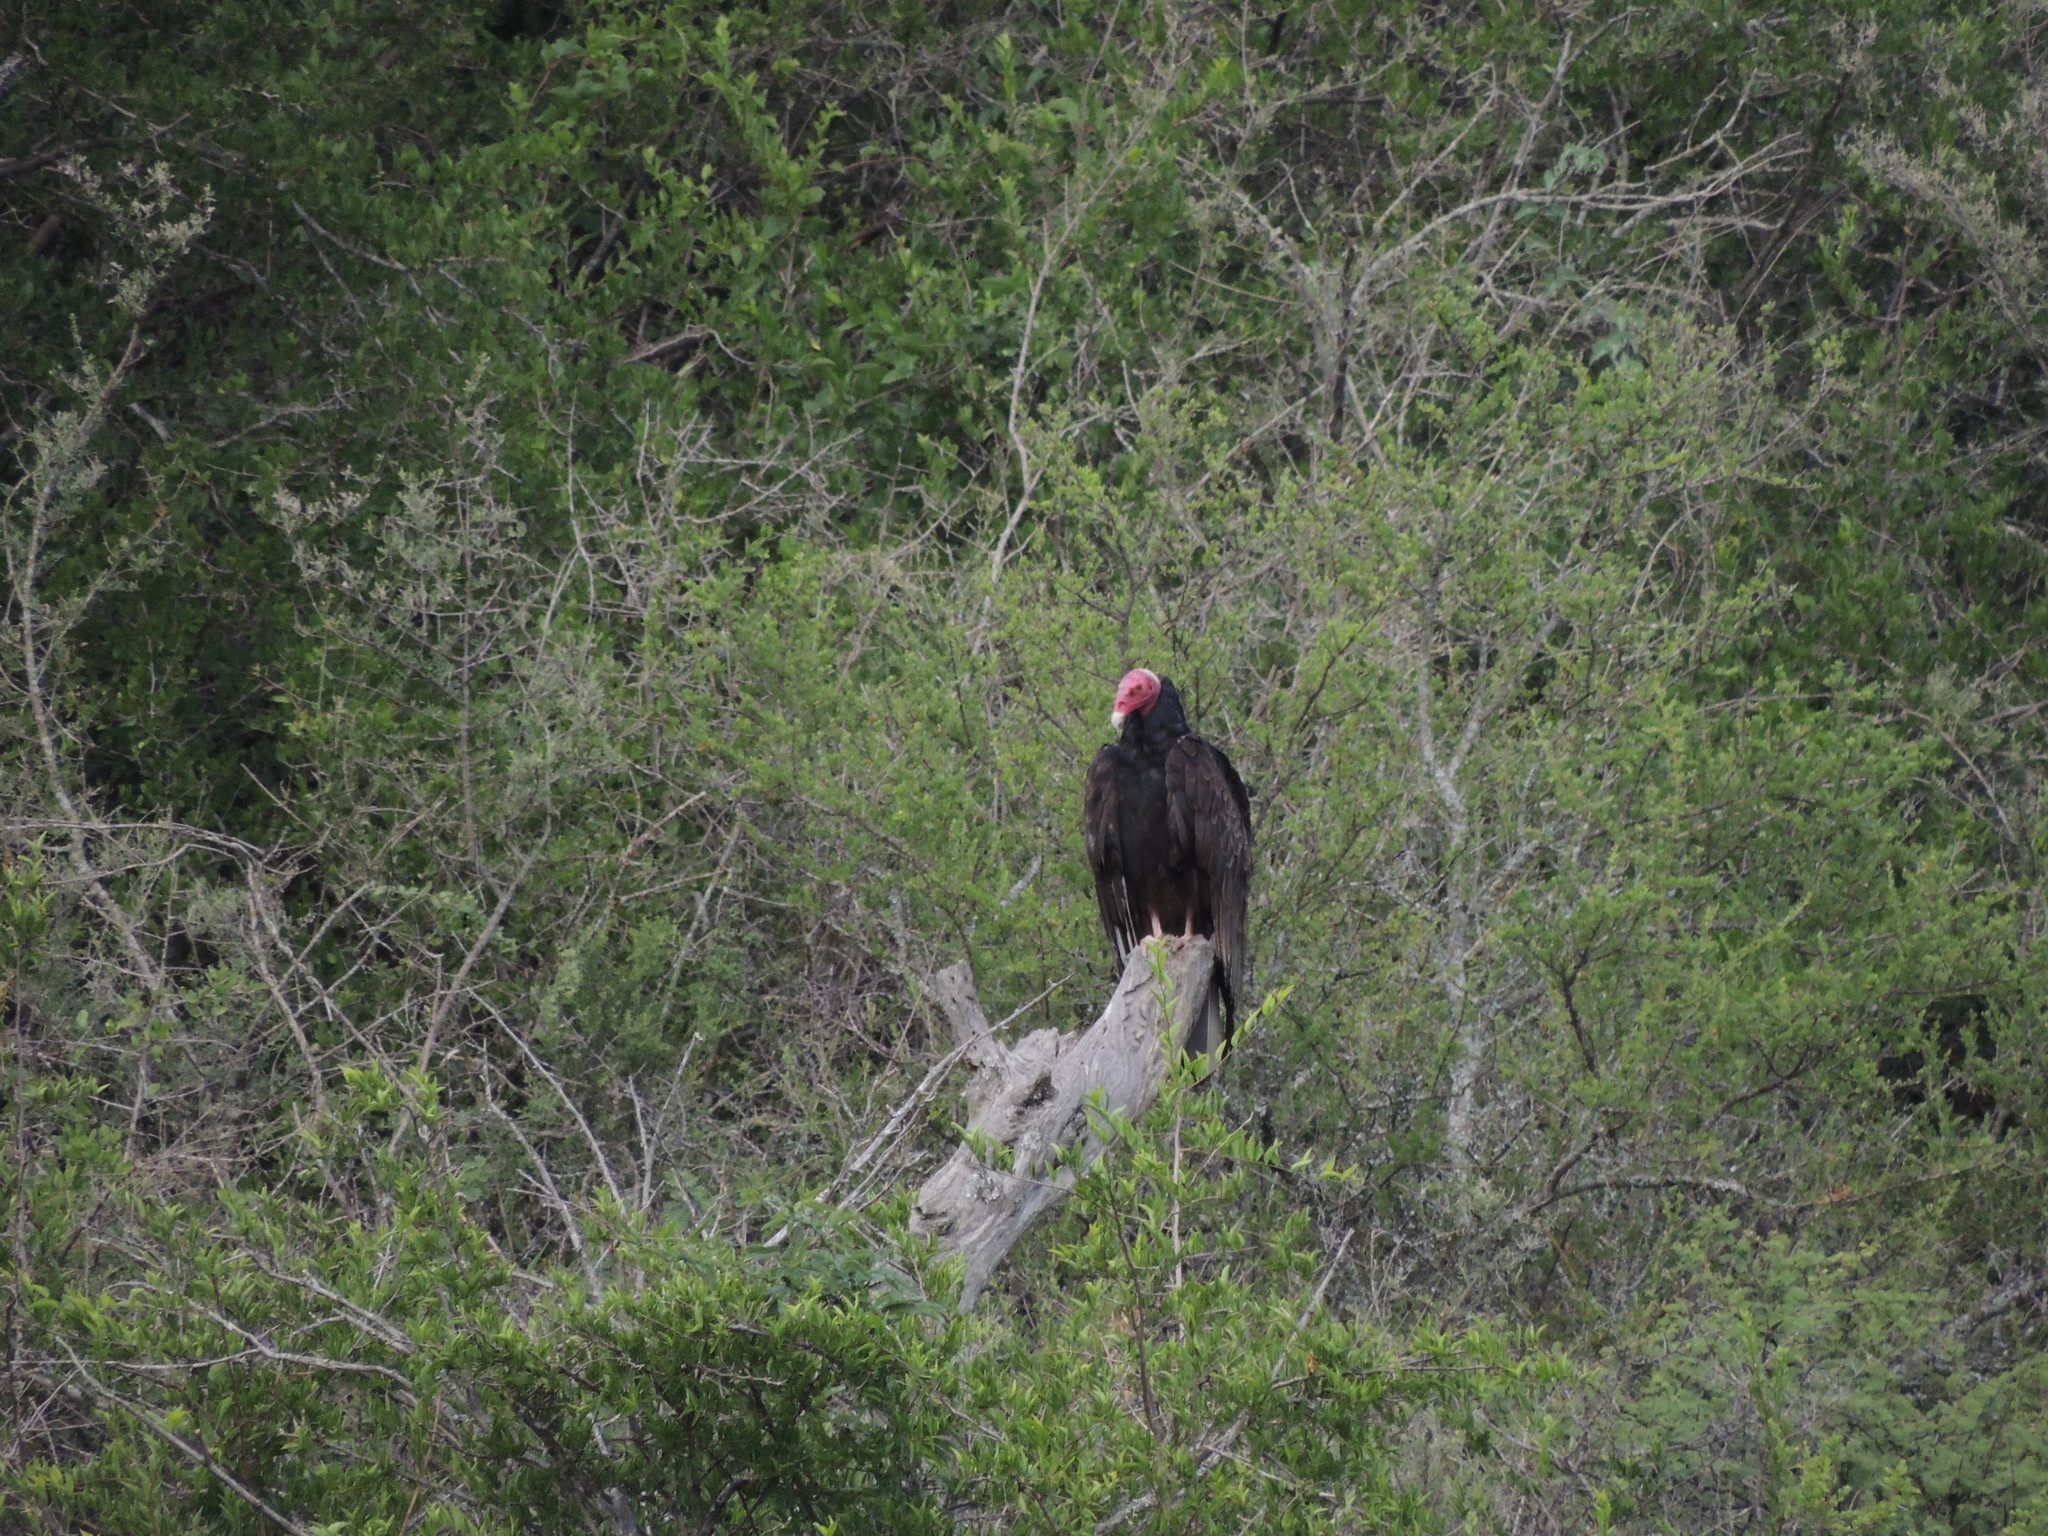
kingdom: Animalia
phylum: Chordata
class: Aves
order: Accipitriformes
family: Cathartidae
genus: Cathartes
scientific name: Cathartes aura
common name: Turkey vulture
